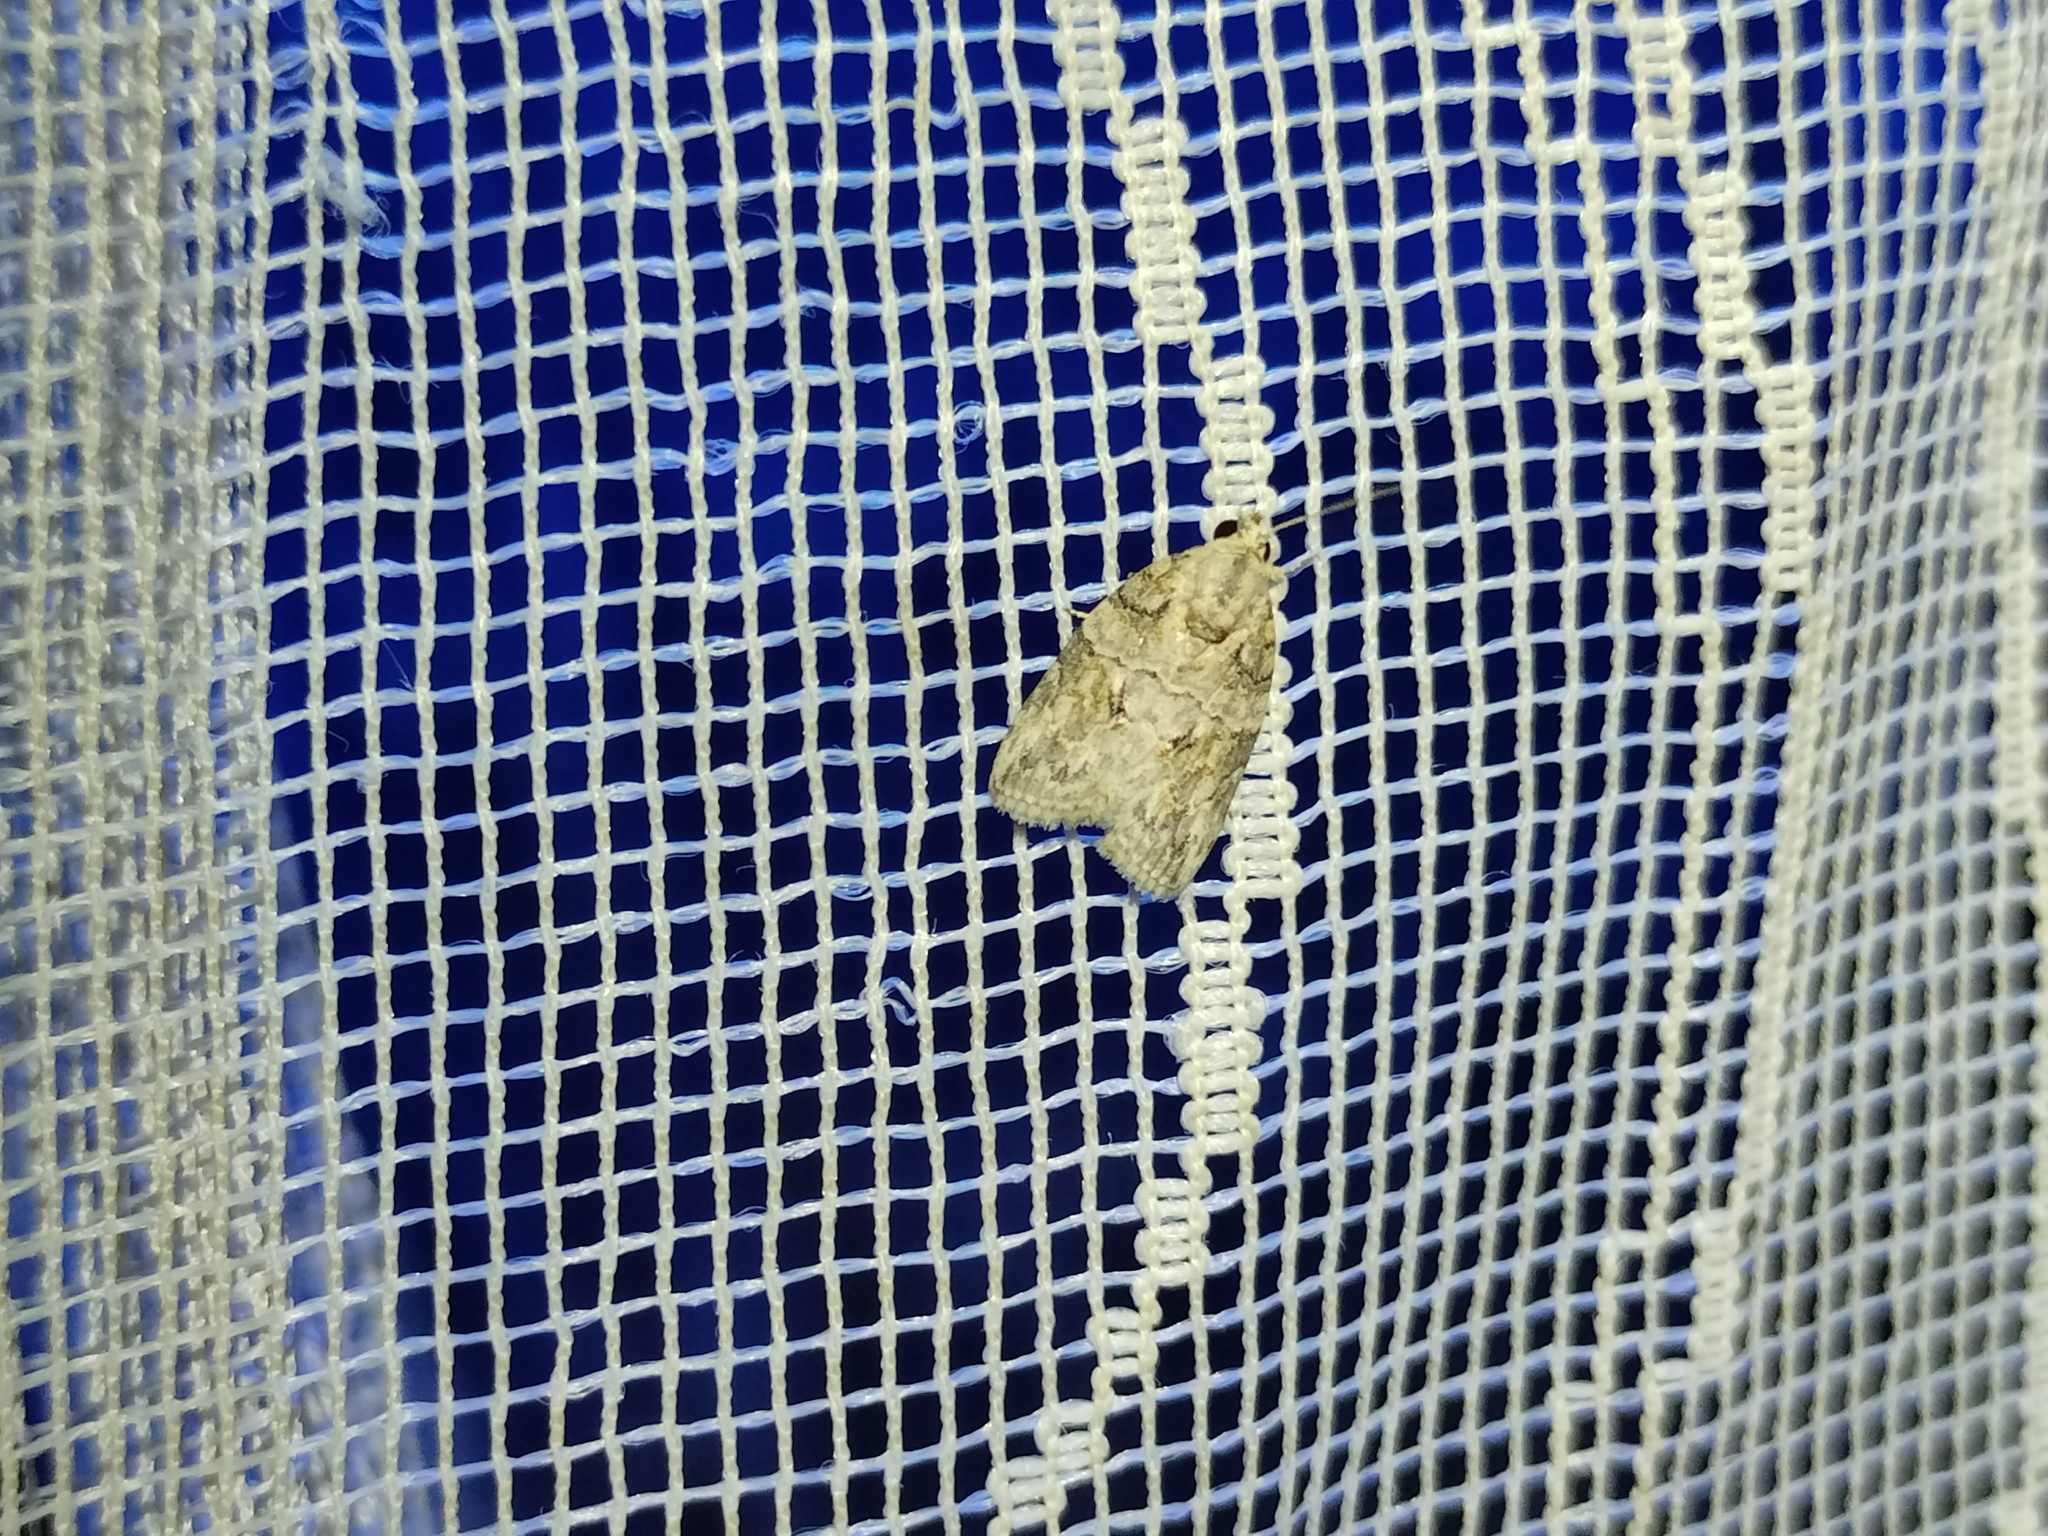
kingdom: Animalia
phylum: Arthropoda
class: Insecta
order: Lepidoptera
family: Nolidae
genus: Garella
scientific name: Garella nilotica
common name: Black-olive caterpillar moth
